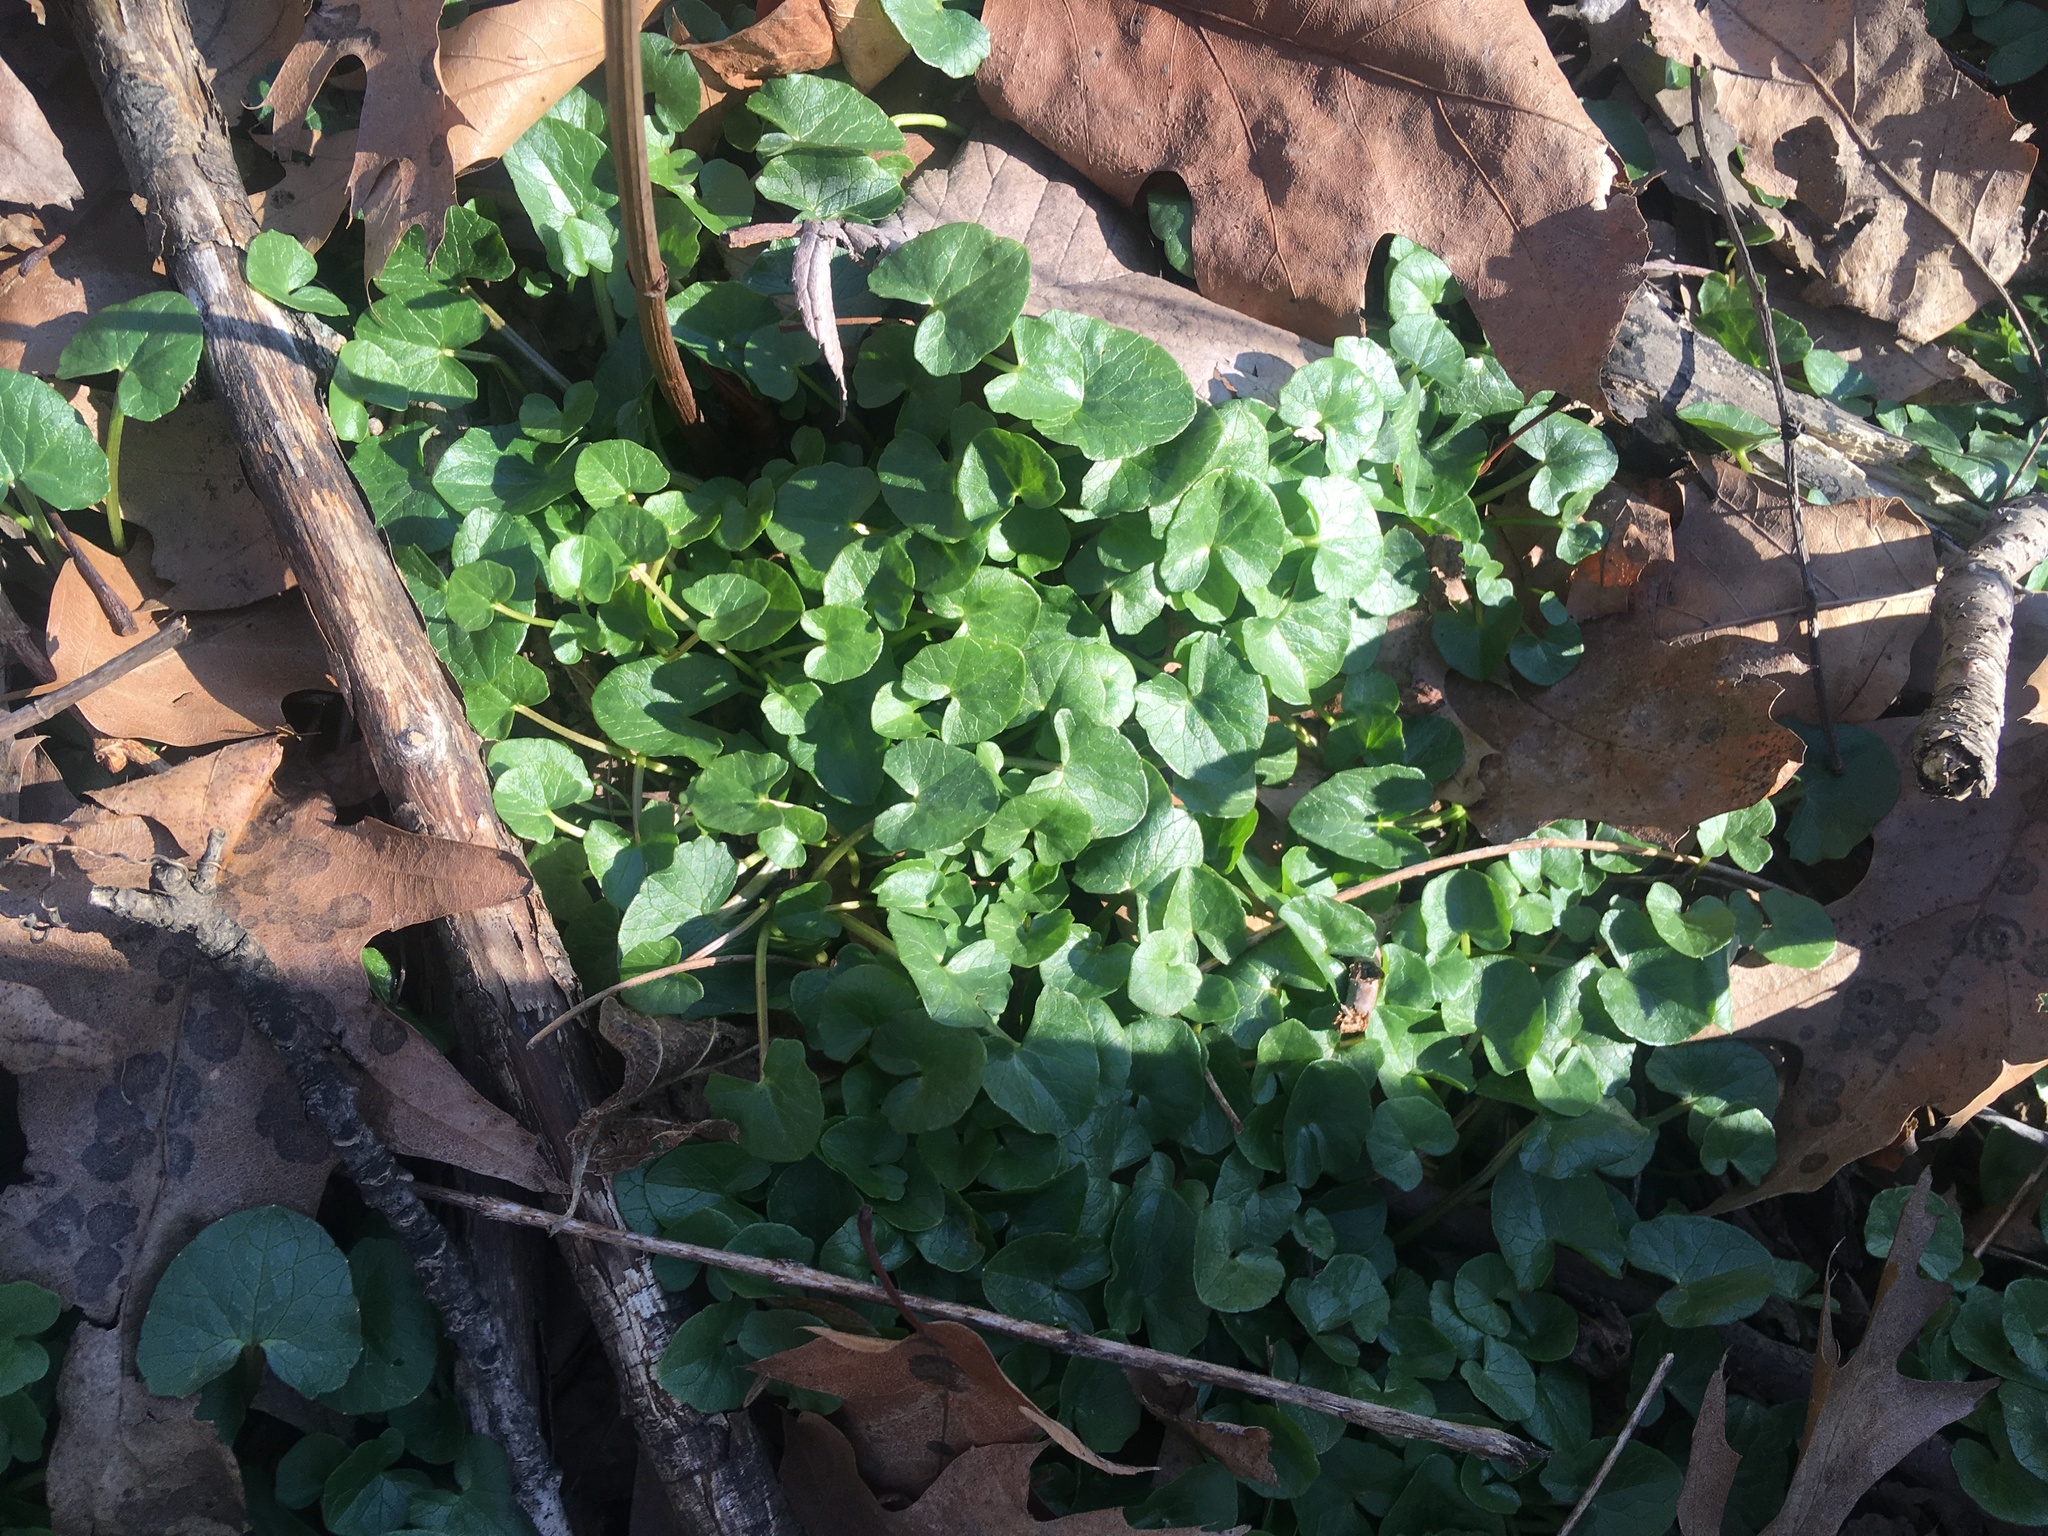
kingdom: Plantae
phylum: Tracheophyta
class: Magnoliopsida
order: Ranunculales
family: Ranunculaceae
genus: Ficaria
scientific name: Ficaria verna
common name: Lesser celandine
